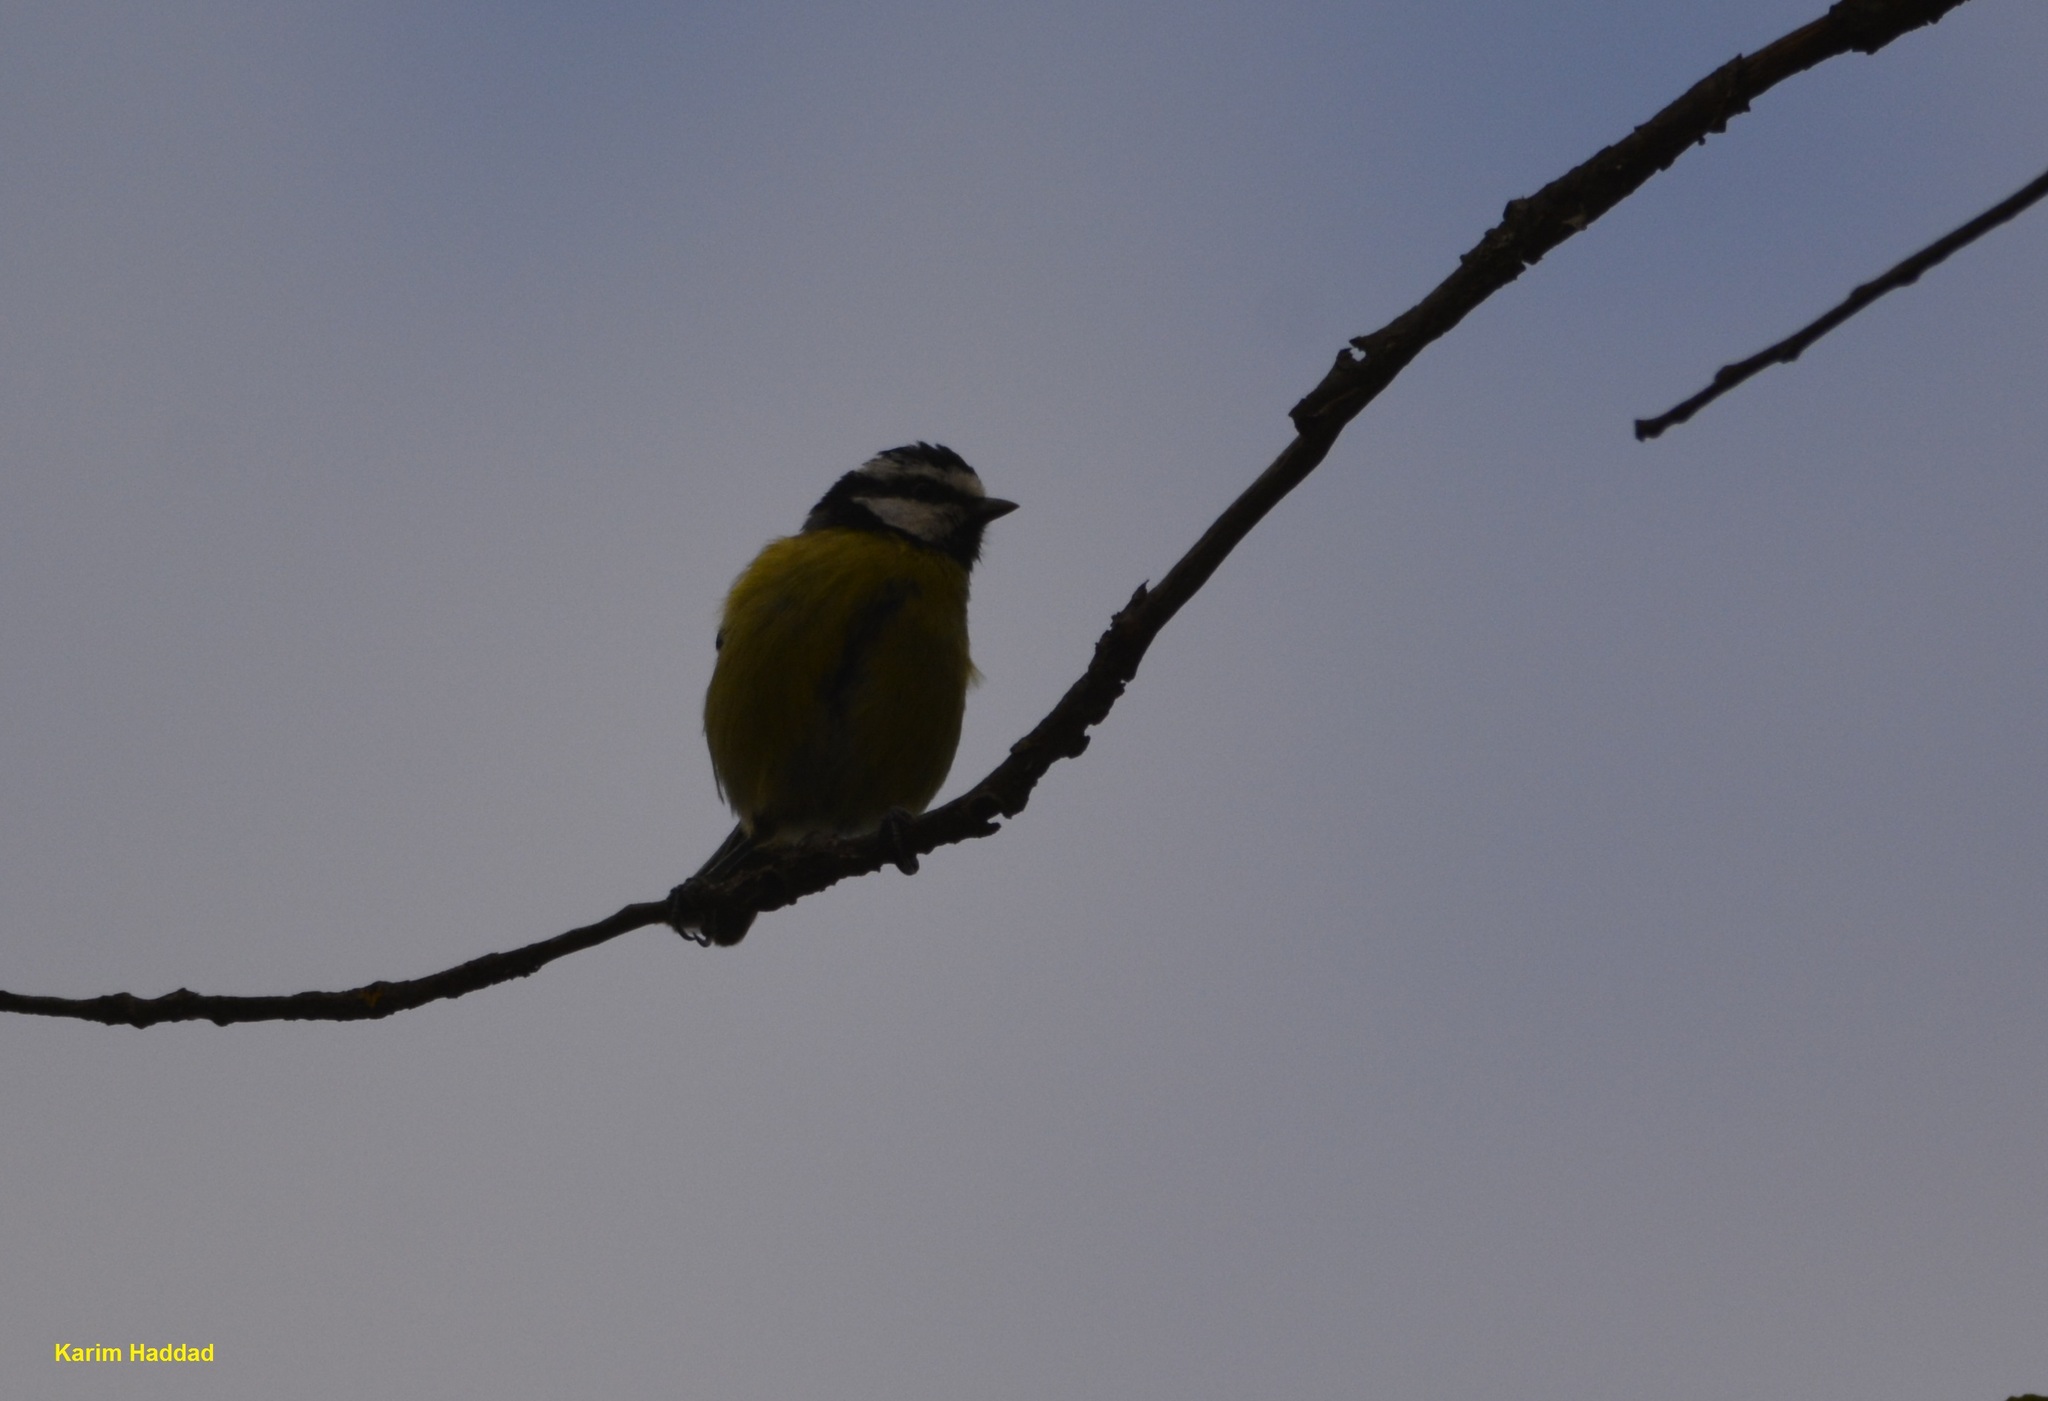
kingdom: Animalia
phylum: Chordata
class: Aves
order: Passeriformes
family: Paridae
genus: Cyanistes
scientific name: Cyanistes teneriffae
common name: African blue tit
